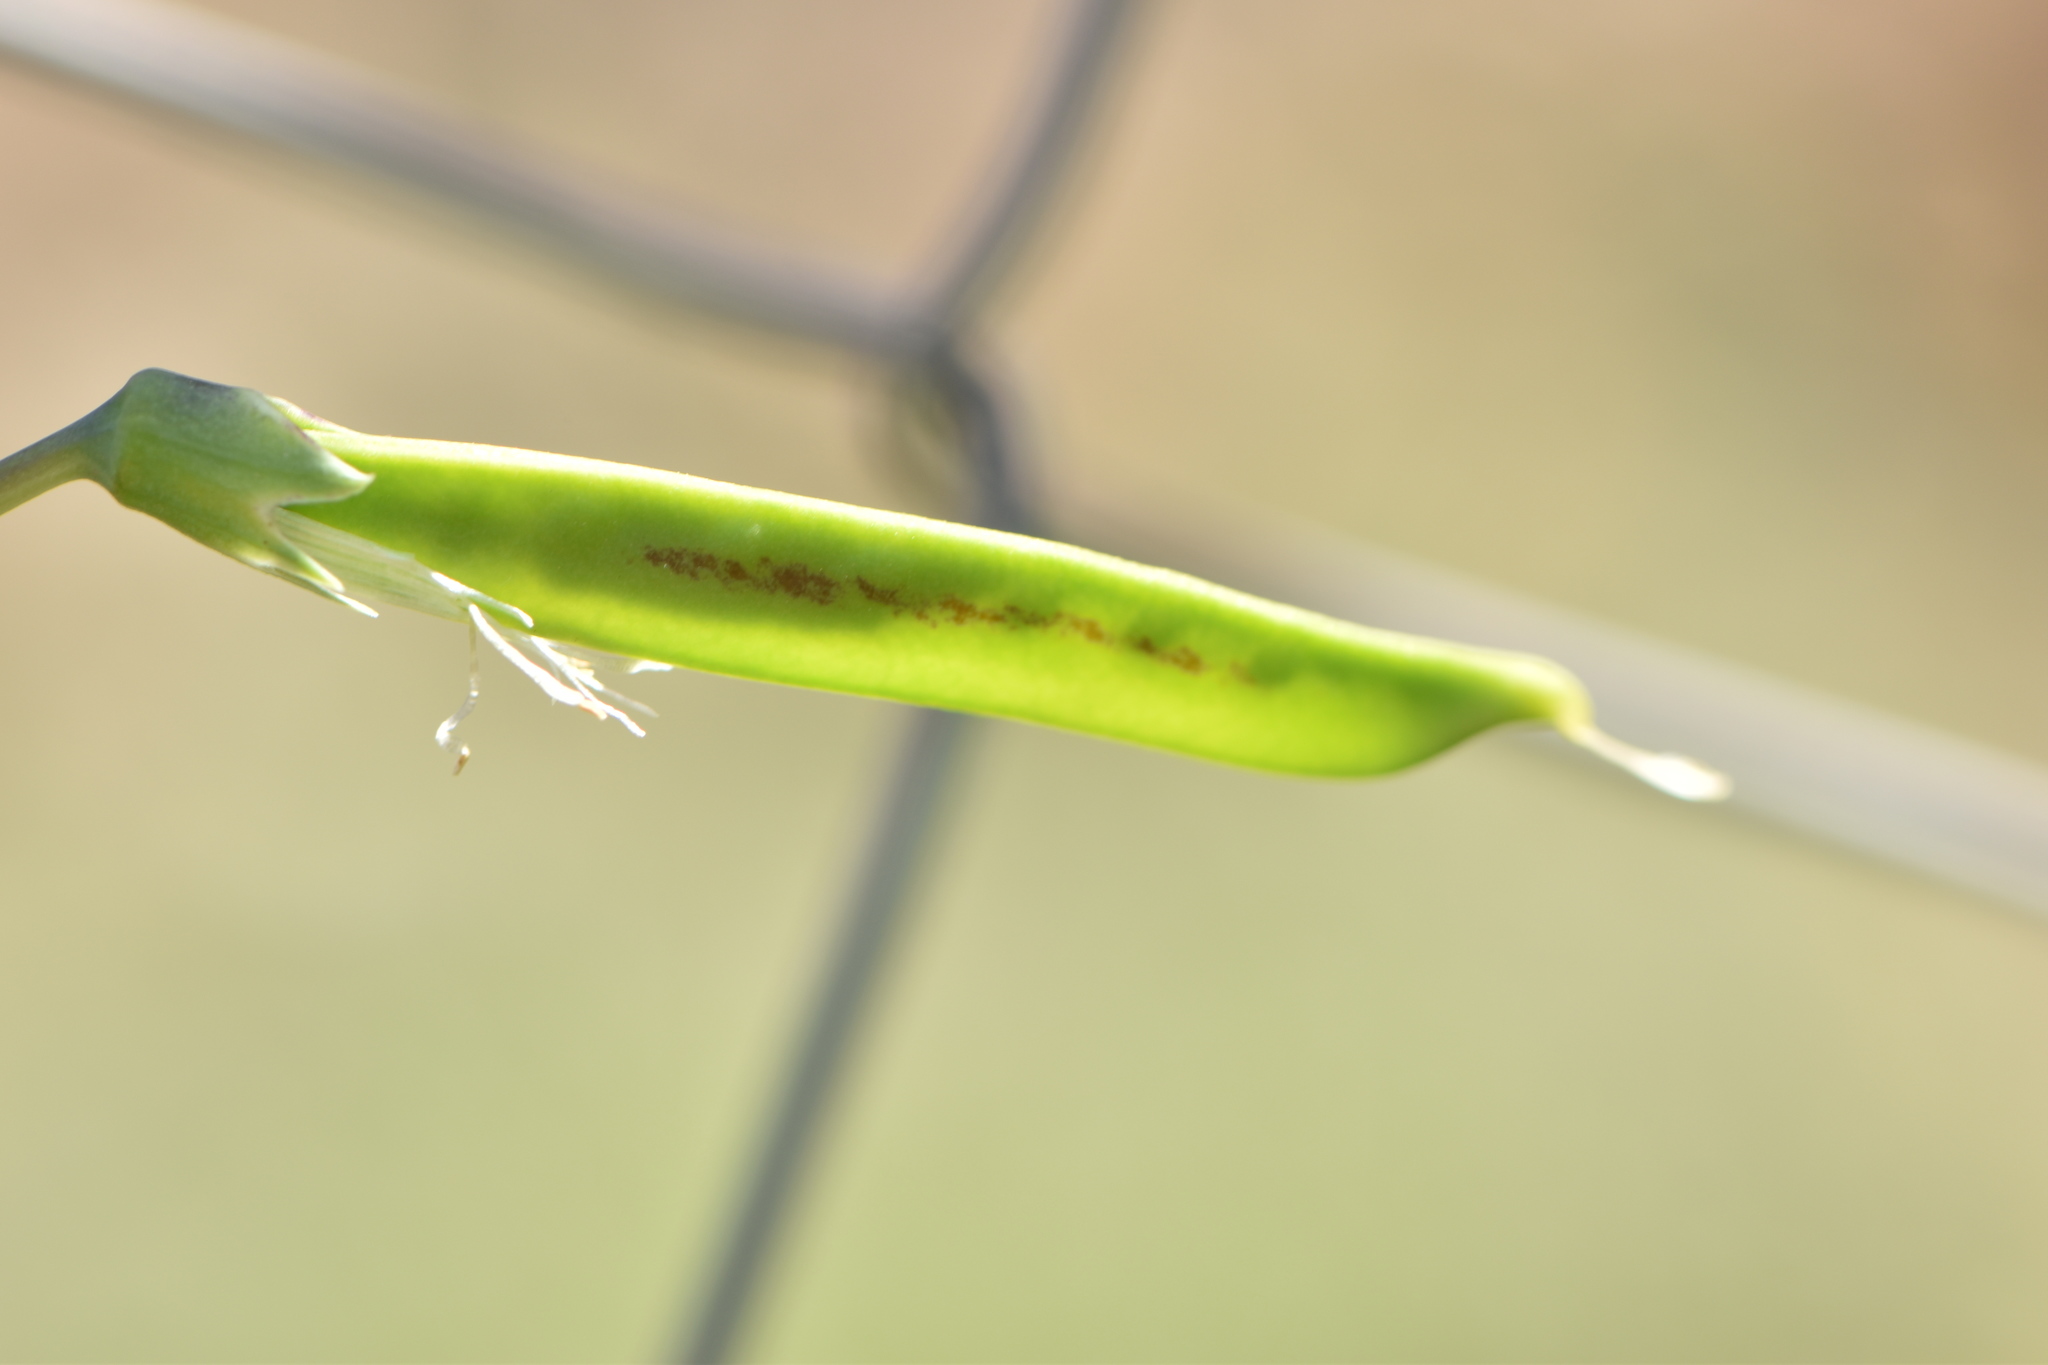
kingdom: Plantae
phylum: Tracheophyta
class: Magnoliopsida
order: Fabales
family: Fabaceae
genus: Lathyrus
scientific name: Lathyrus clymenum
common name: Spanish vetchling
